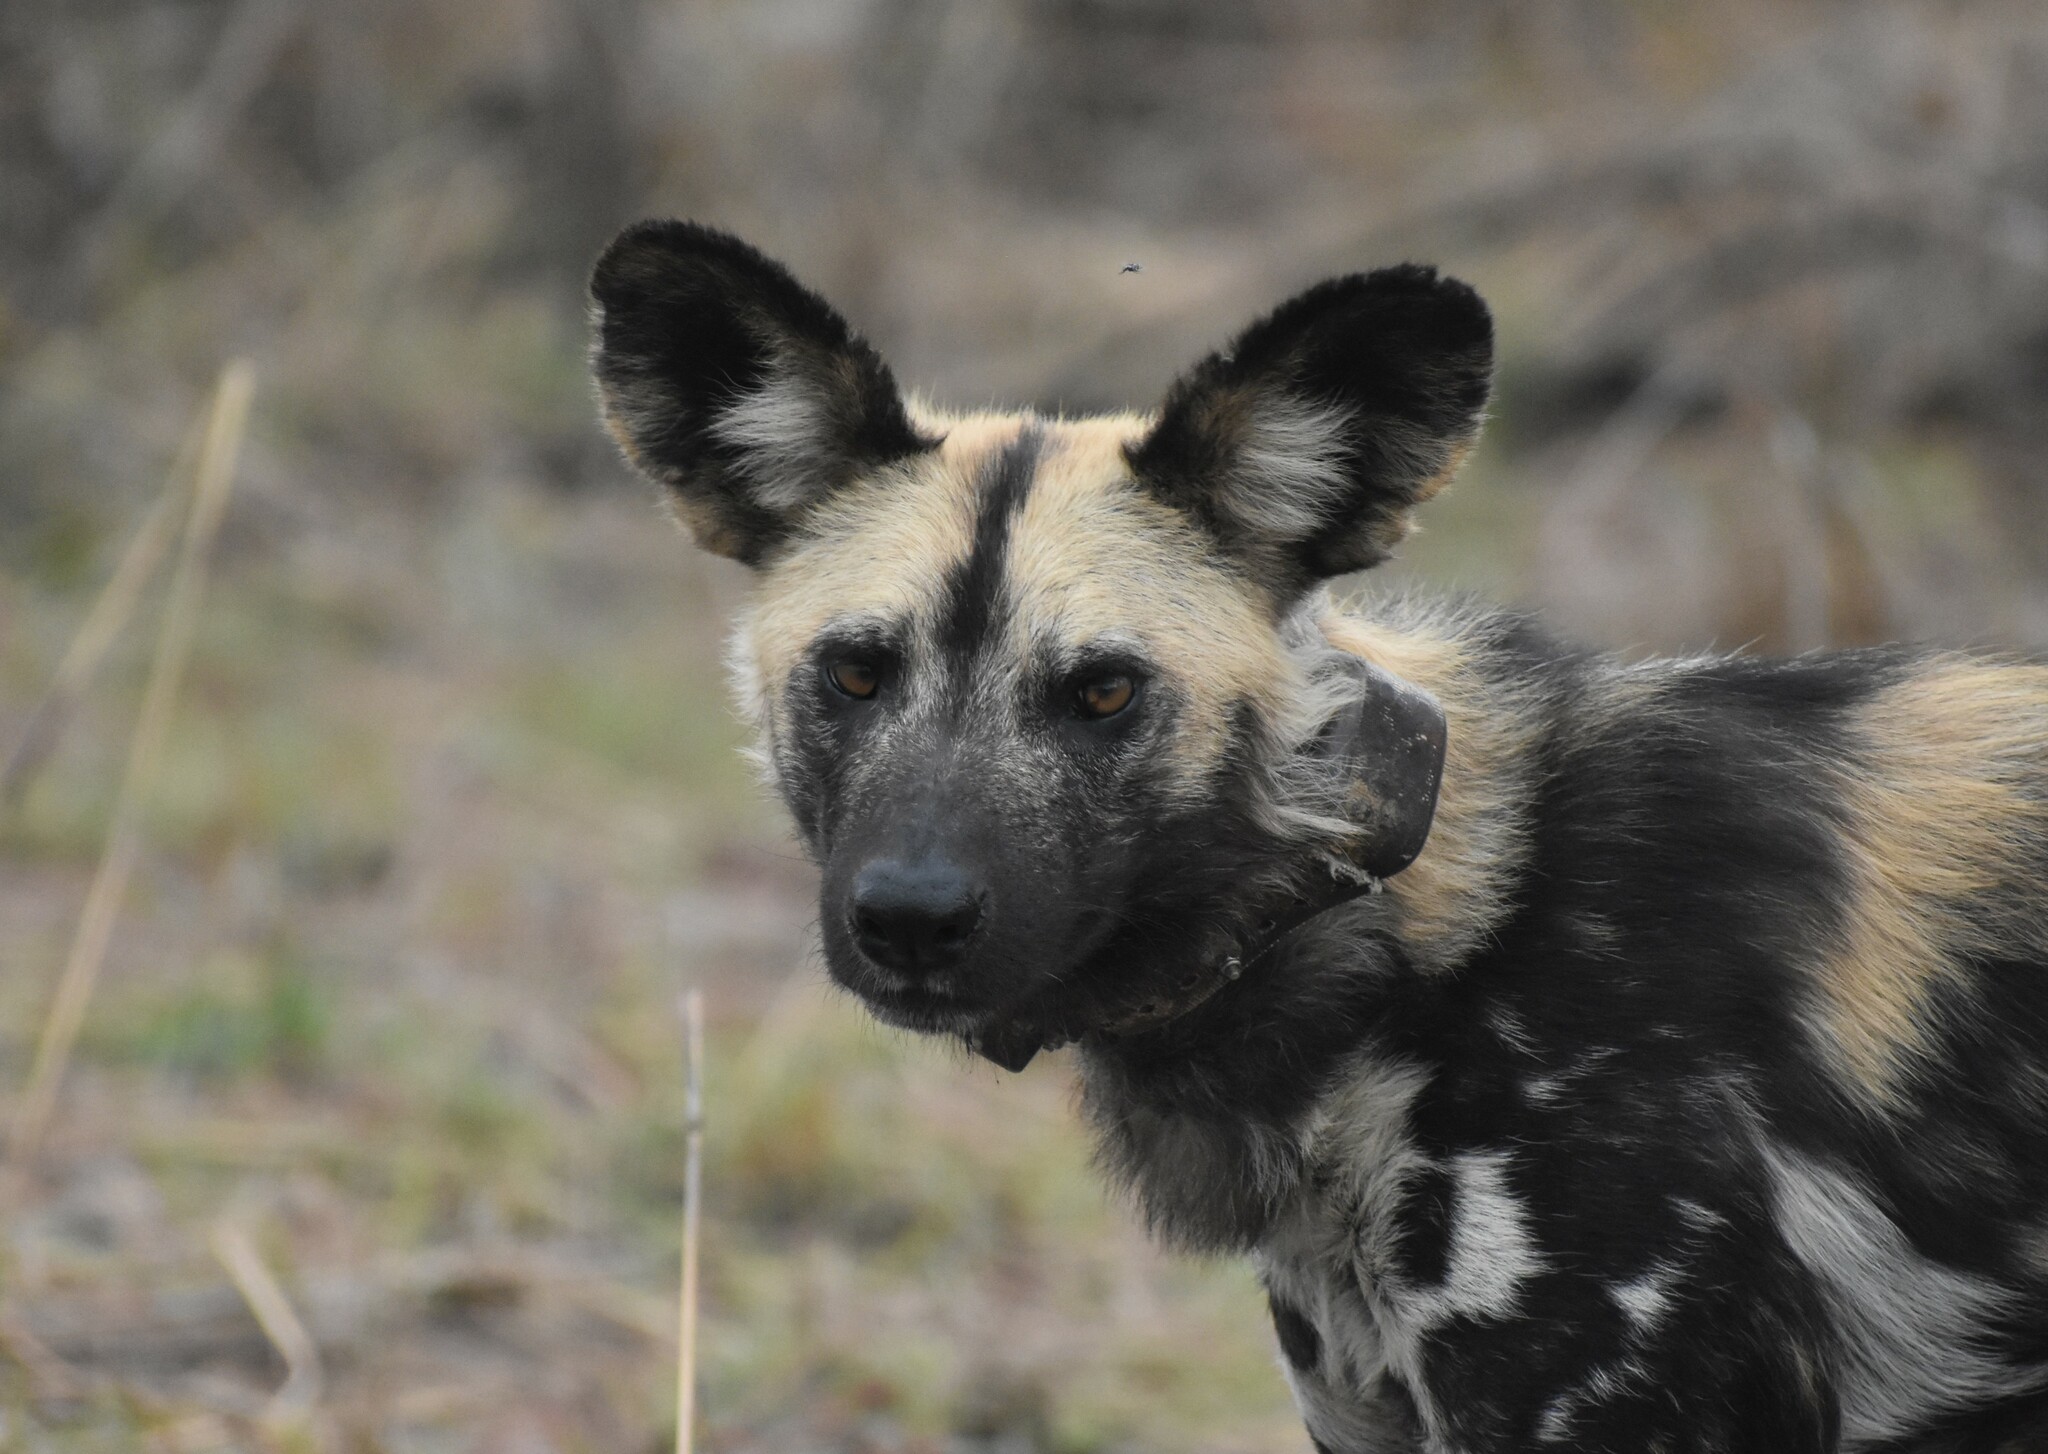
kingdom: Animalia
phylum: Chordata
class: Mammalia
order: Carnivora
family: Canidae
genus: Lycaon
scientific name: Lycaon pictus
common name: African wild dog
